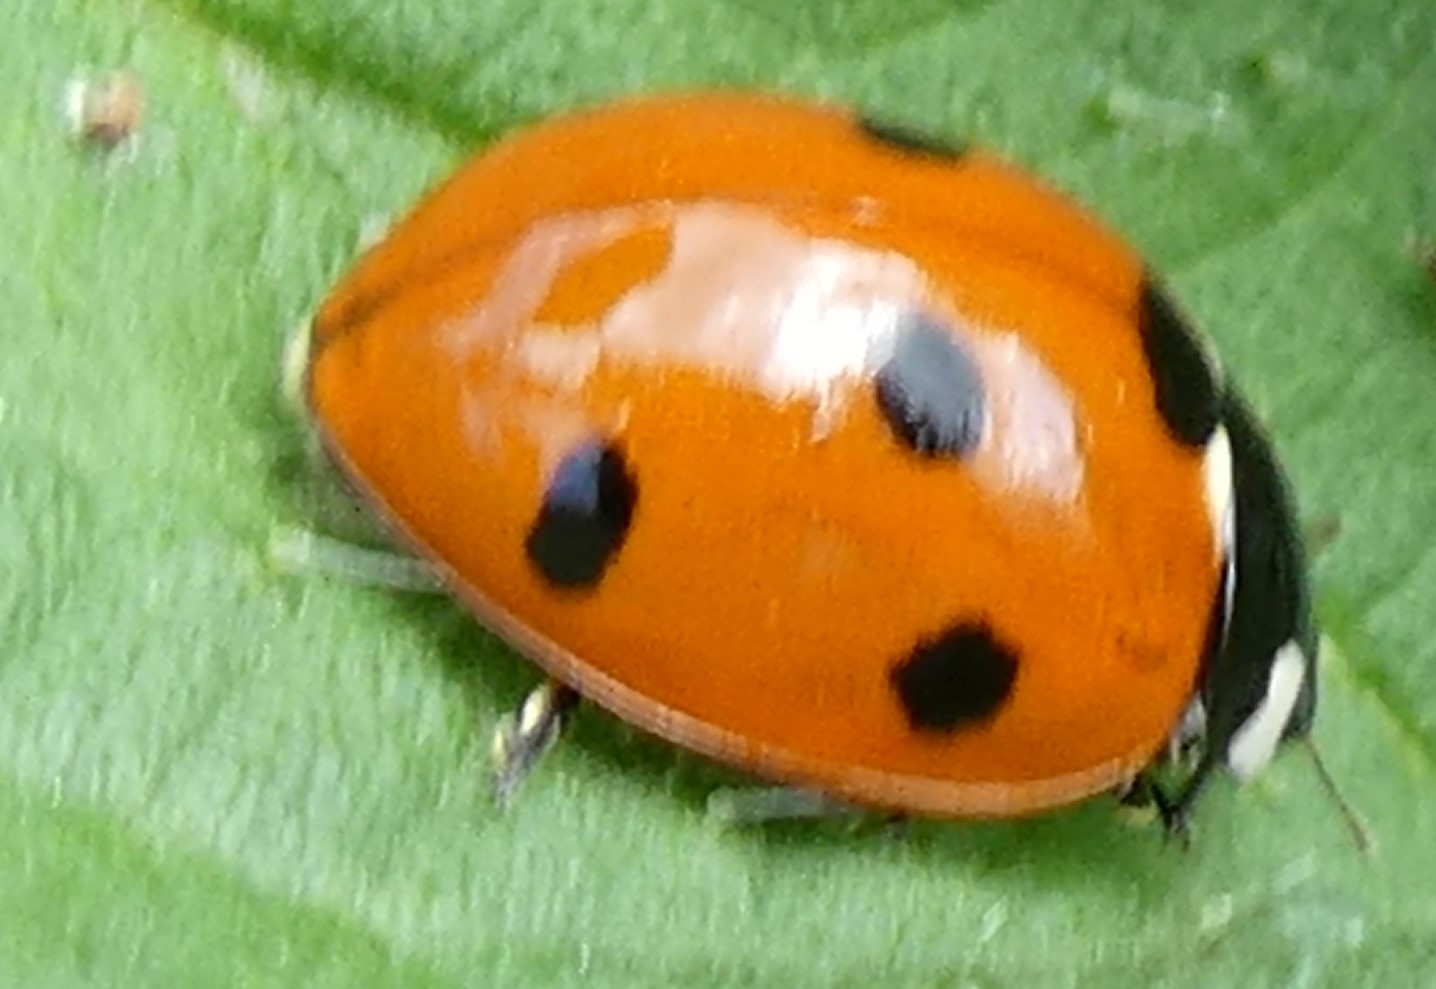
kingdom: Animalia
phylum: Arthropoda
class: Insecta
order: Coleoptera
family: Coccinellidae
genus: Coccinella
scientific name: Coccinella septempunctata
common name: Sevenspotted lady beetle
